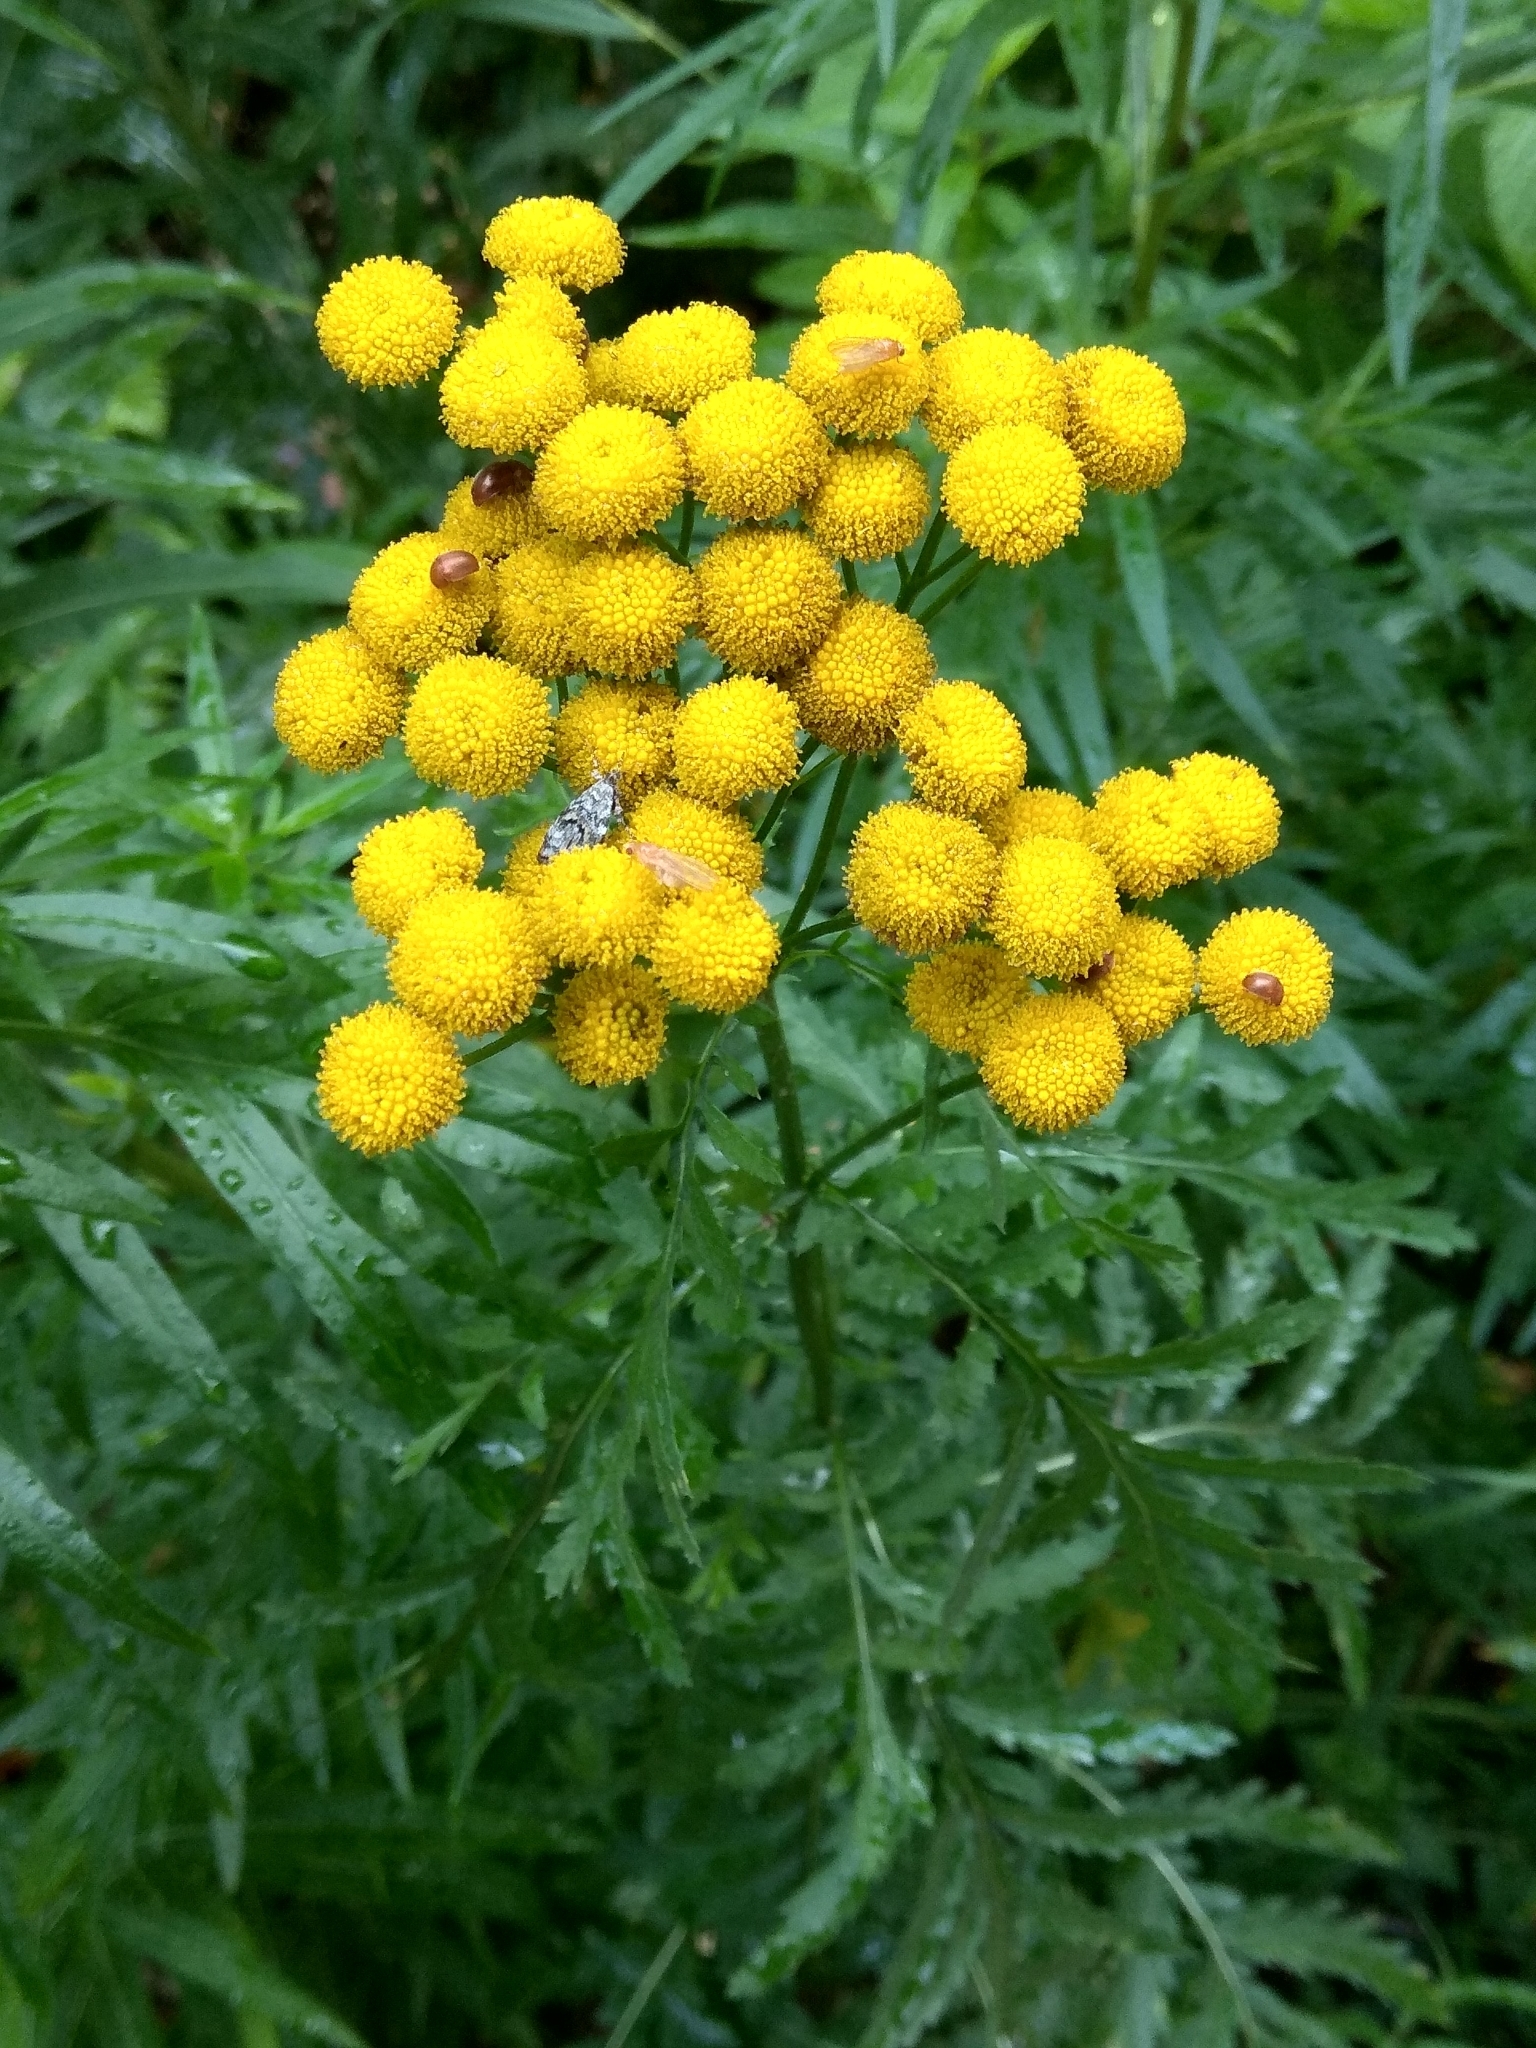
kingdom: Plantae
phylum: Tracheophyta
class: Magnoliopsida
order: Asterales
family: Asteraceae
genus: Tanacetum
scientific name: Tanacetum vulgare
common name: Common tansy
